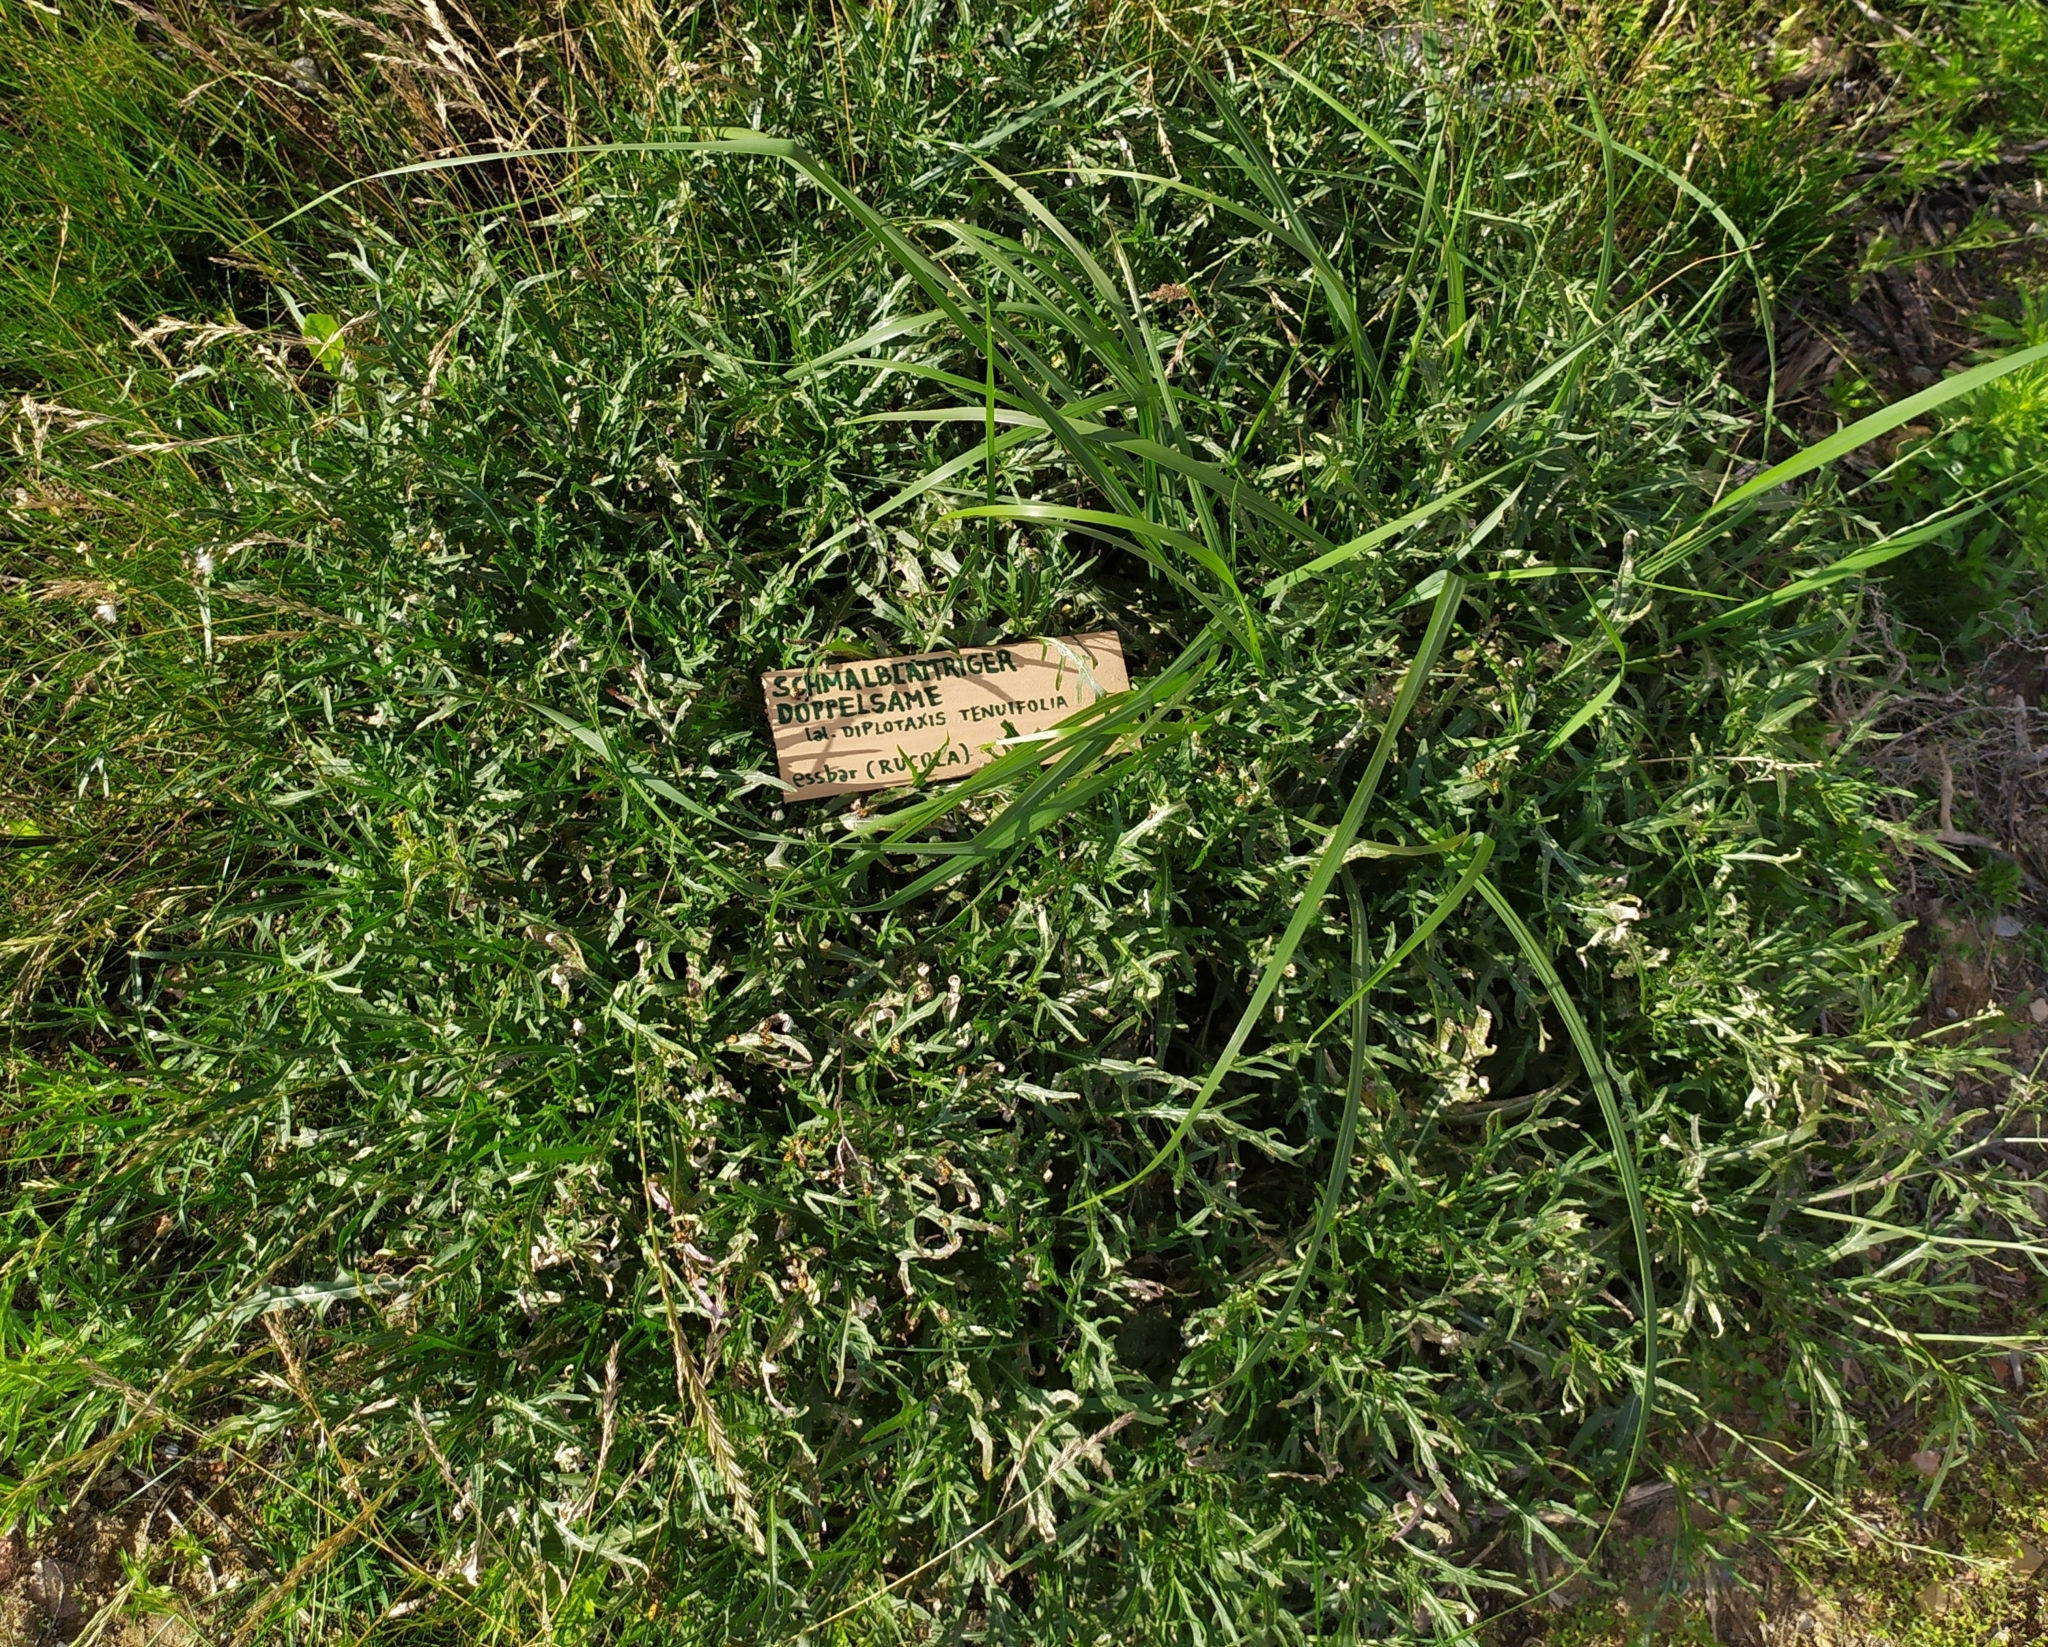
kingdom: Plantae
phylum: Tracheophyta
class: Magnoliopsida
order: Brassicales
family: Brassicaceae
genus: Diplotaxis
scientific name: Diplotaxis tenuifolia
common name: Perennial wall-rocket
